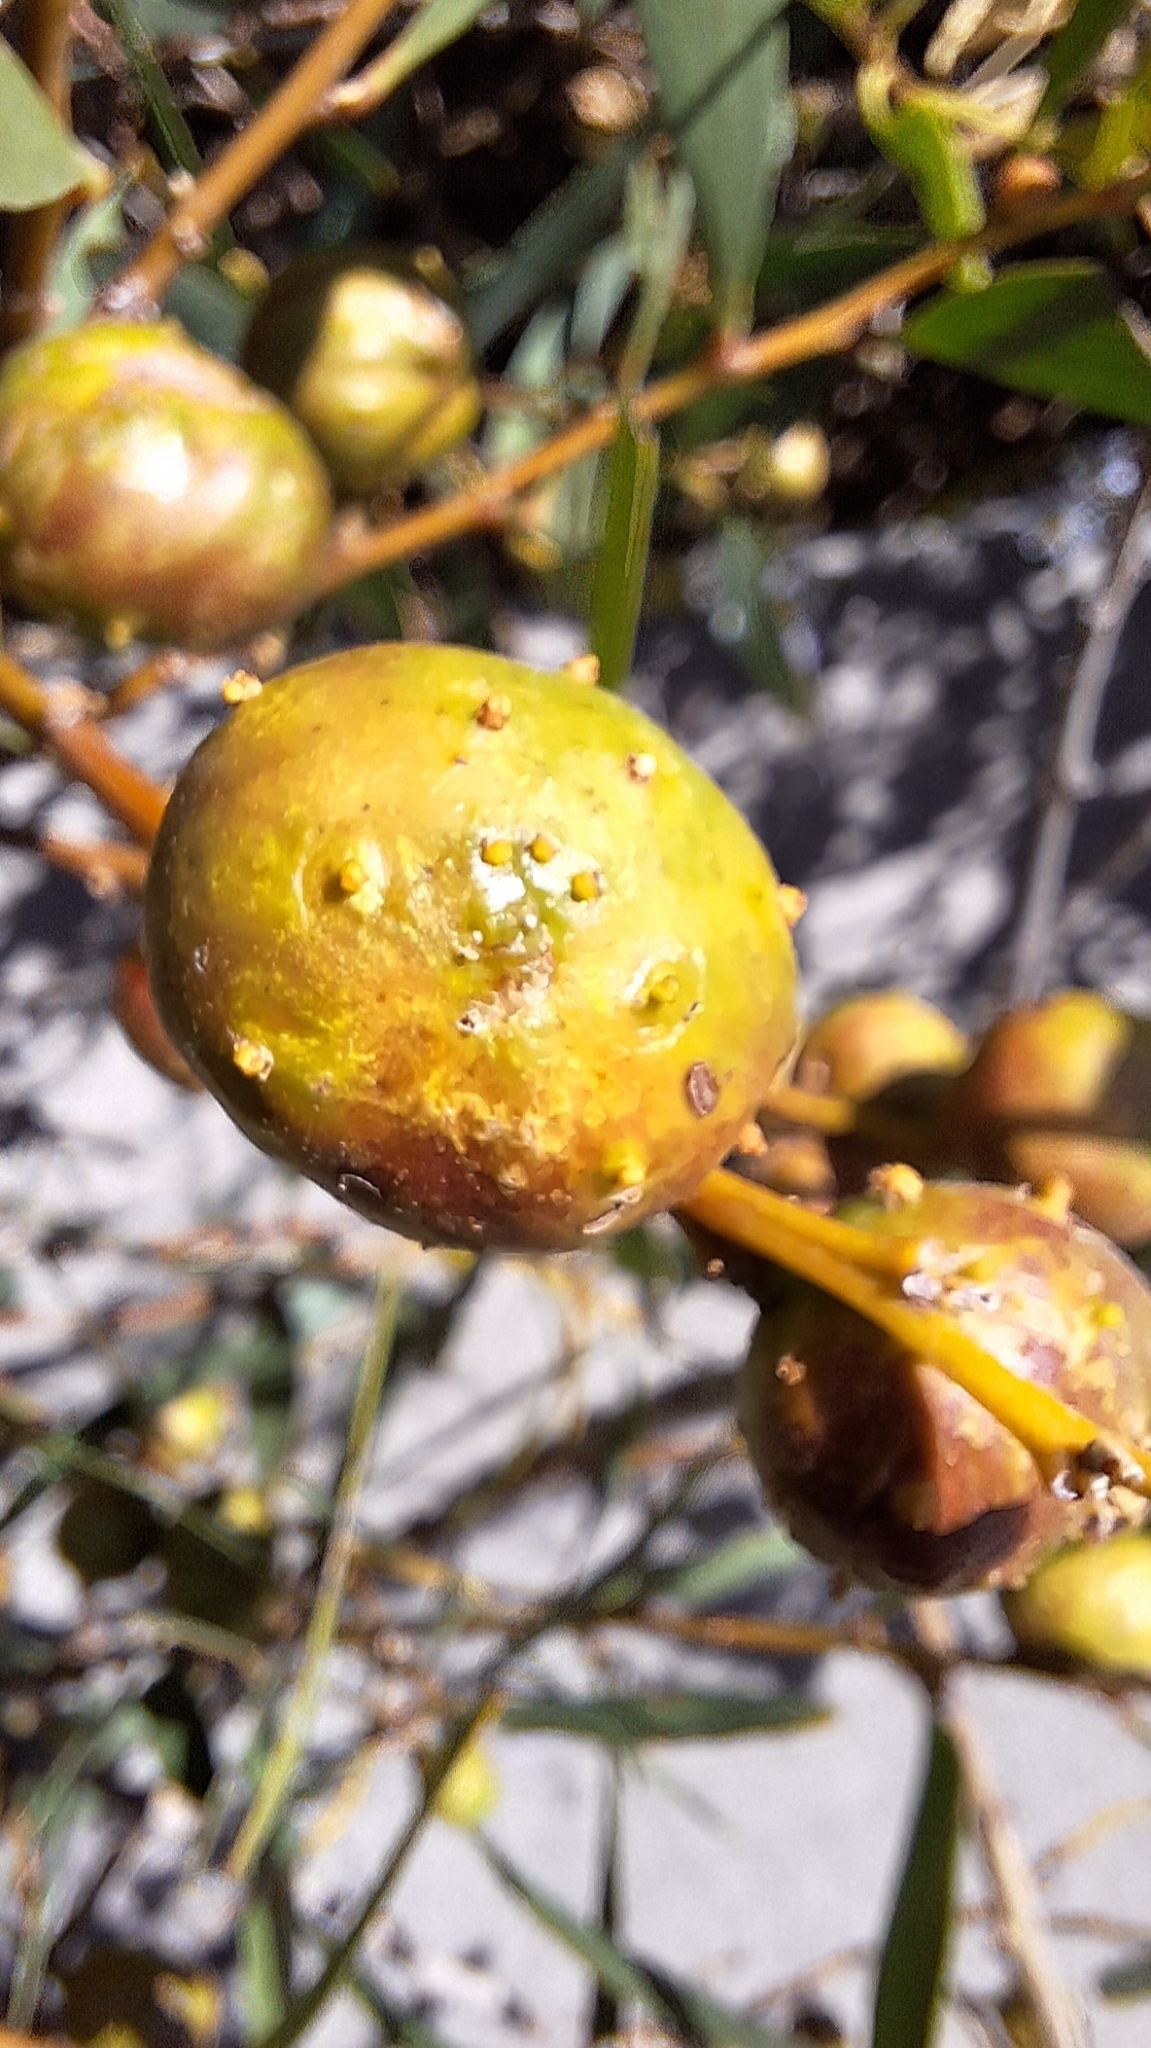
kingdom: Animalia
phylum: Arthropoda
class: Insecta
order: Hymenoptera
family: Pteromalidae
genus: Trichilogaster
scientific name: Trichilogaster acaciaelongifoliae
